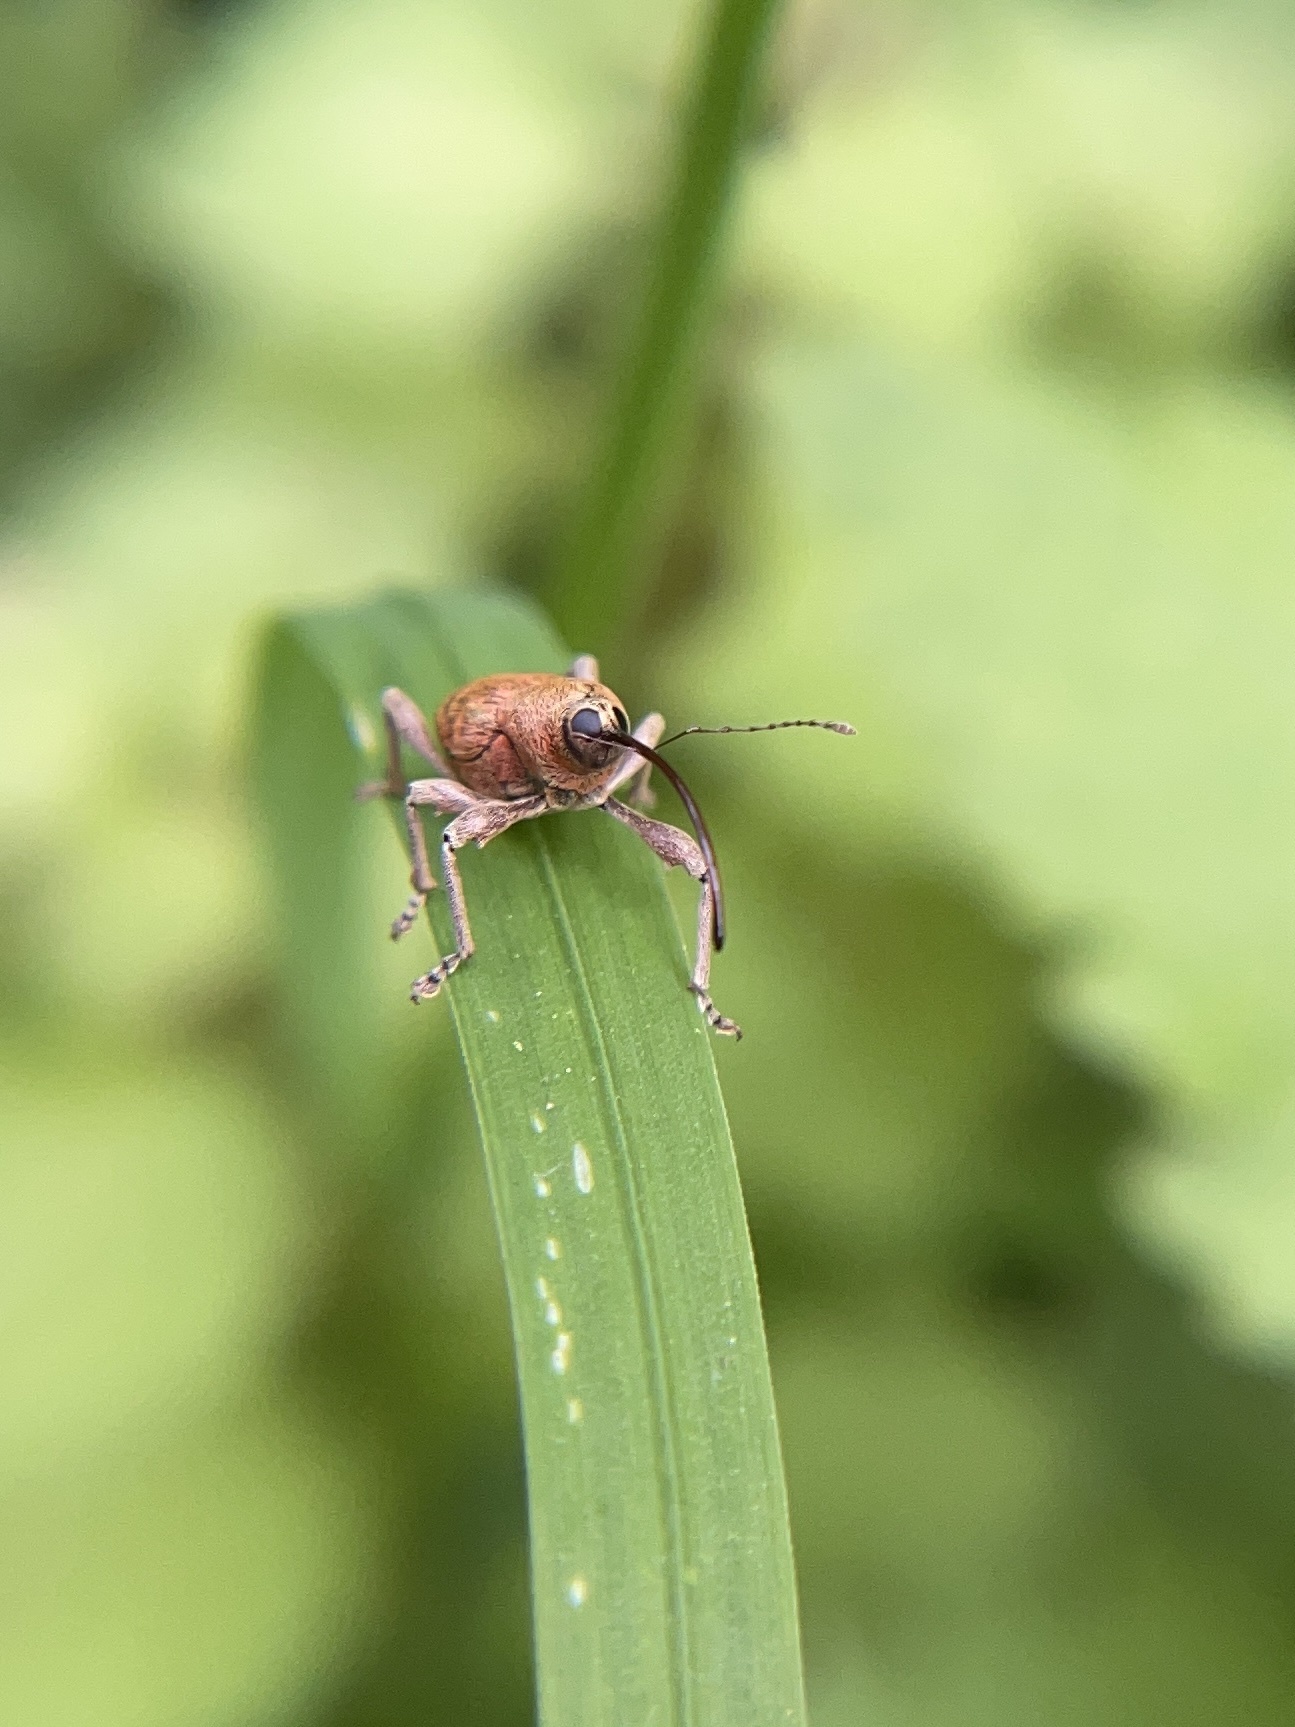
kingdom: Animalia
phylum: Arthropoda
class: Insecta
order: Coleoptera
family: Curculionidae
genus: Curculio
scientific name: Curculio glandium
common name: Acorn weevil
